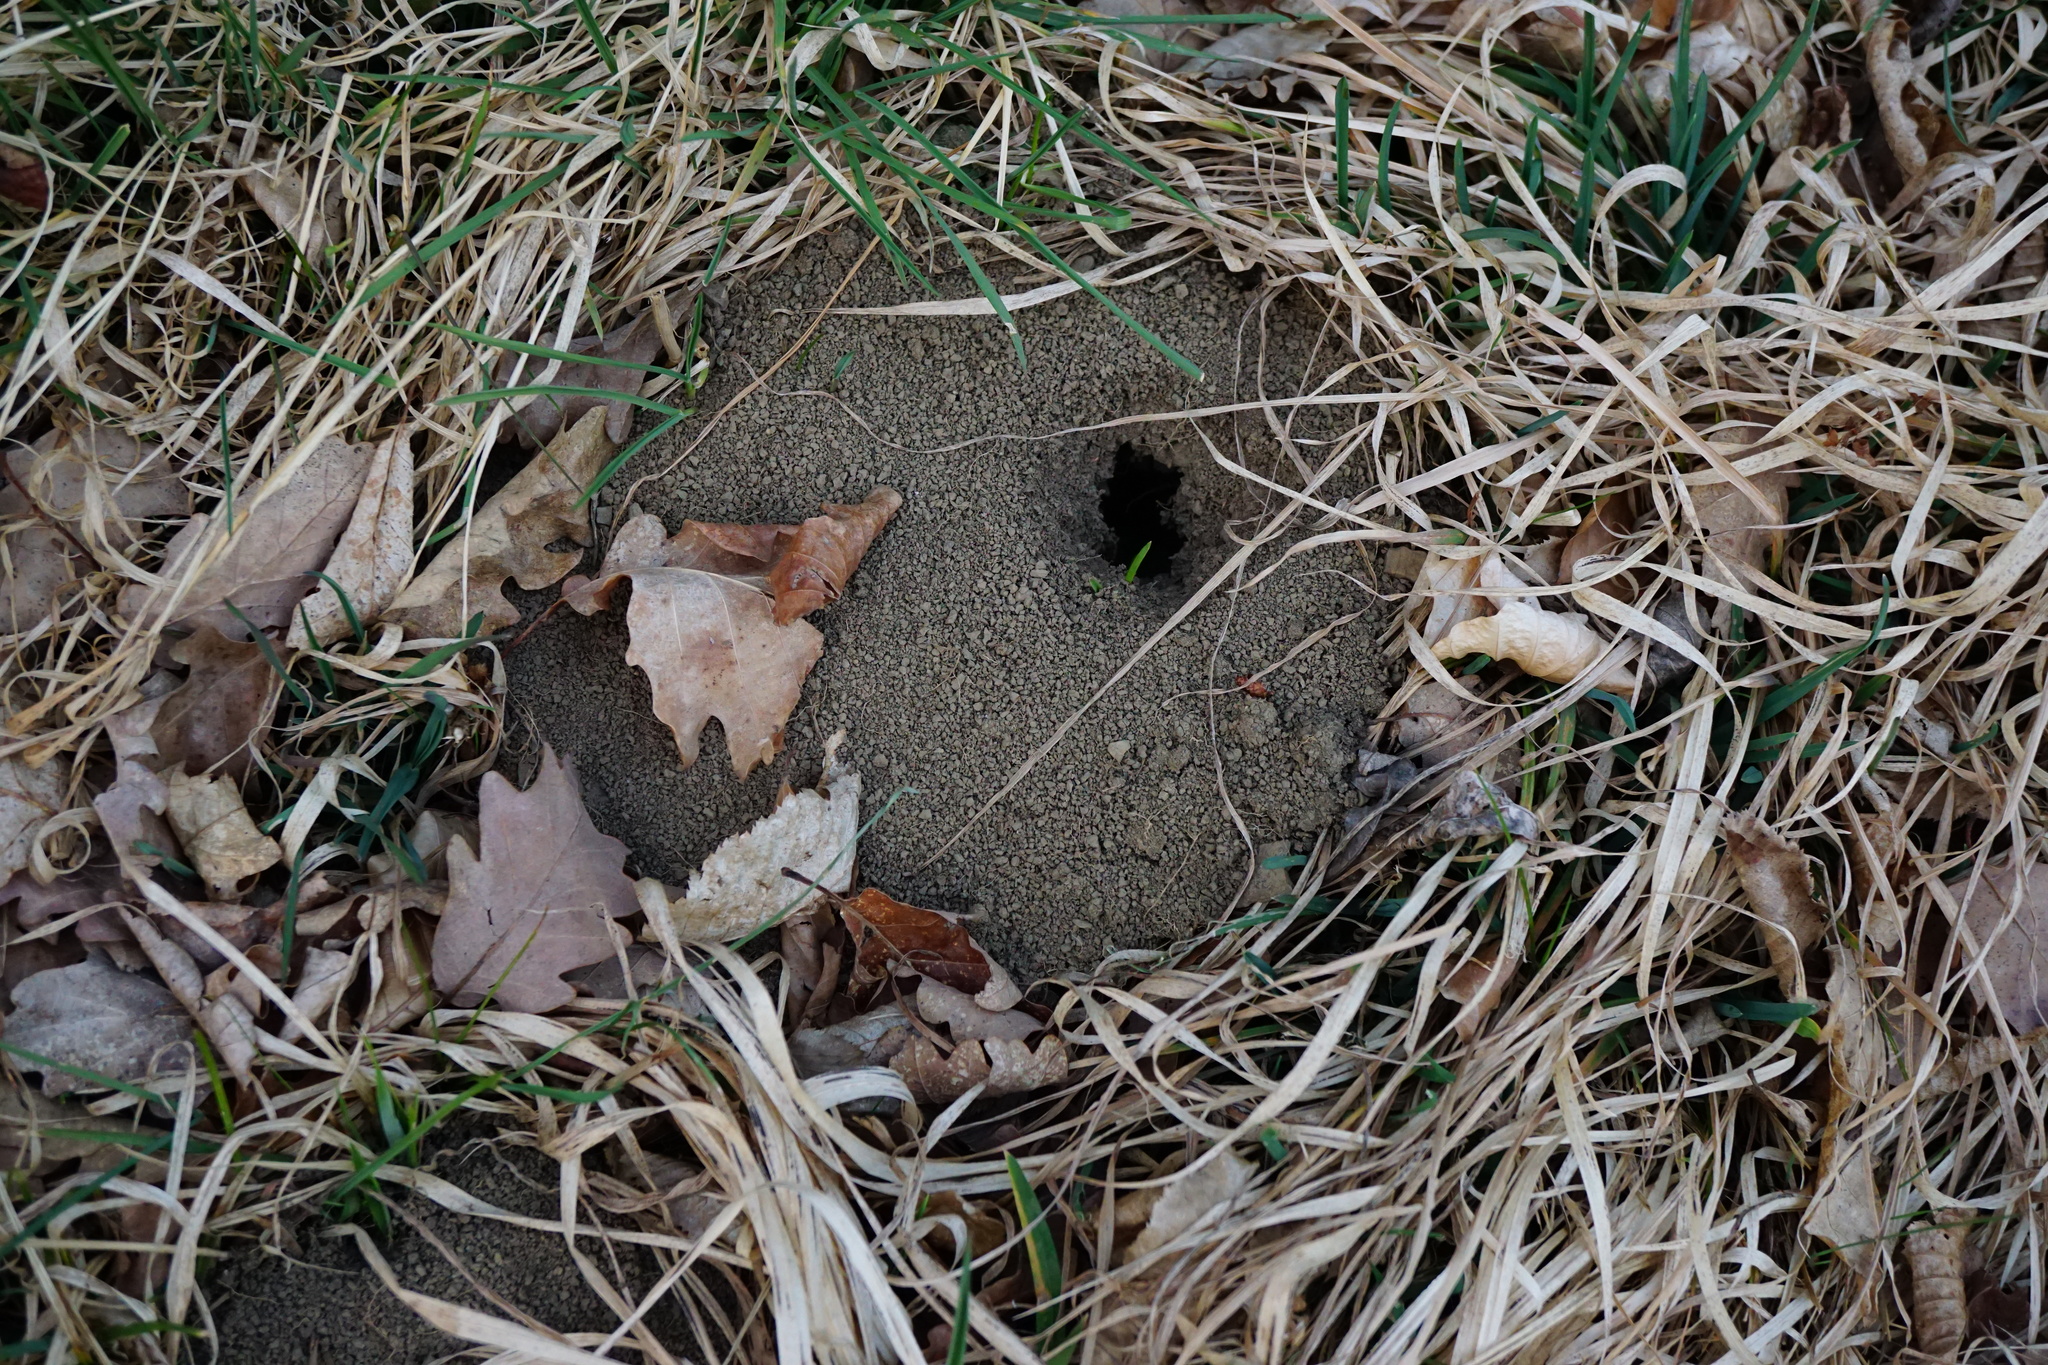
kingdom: Animalia
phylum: Chordata
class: Mammalia
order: Soricomorpha
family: Talpidae
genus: Talpa
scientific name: Talpa europaea
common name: European mole
